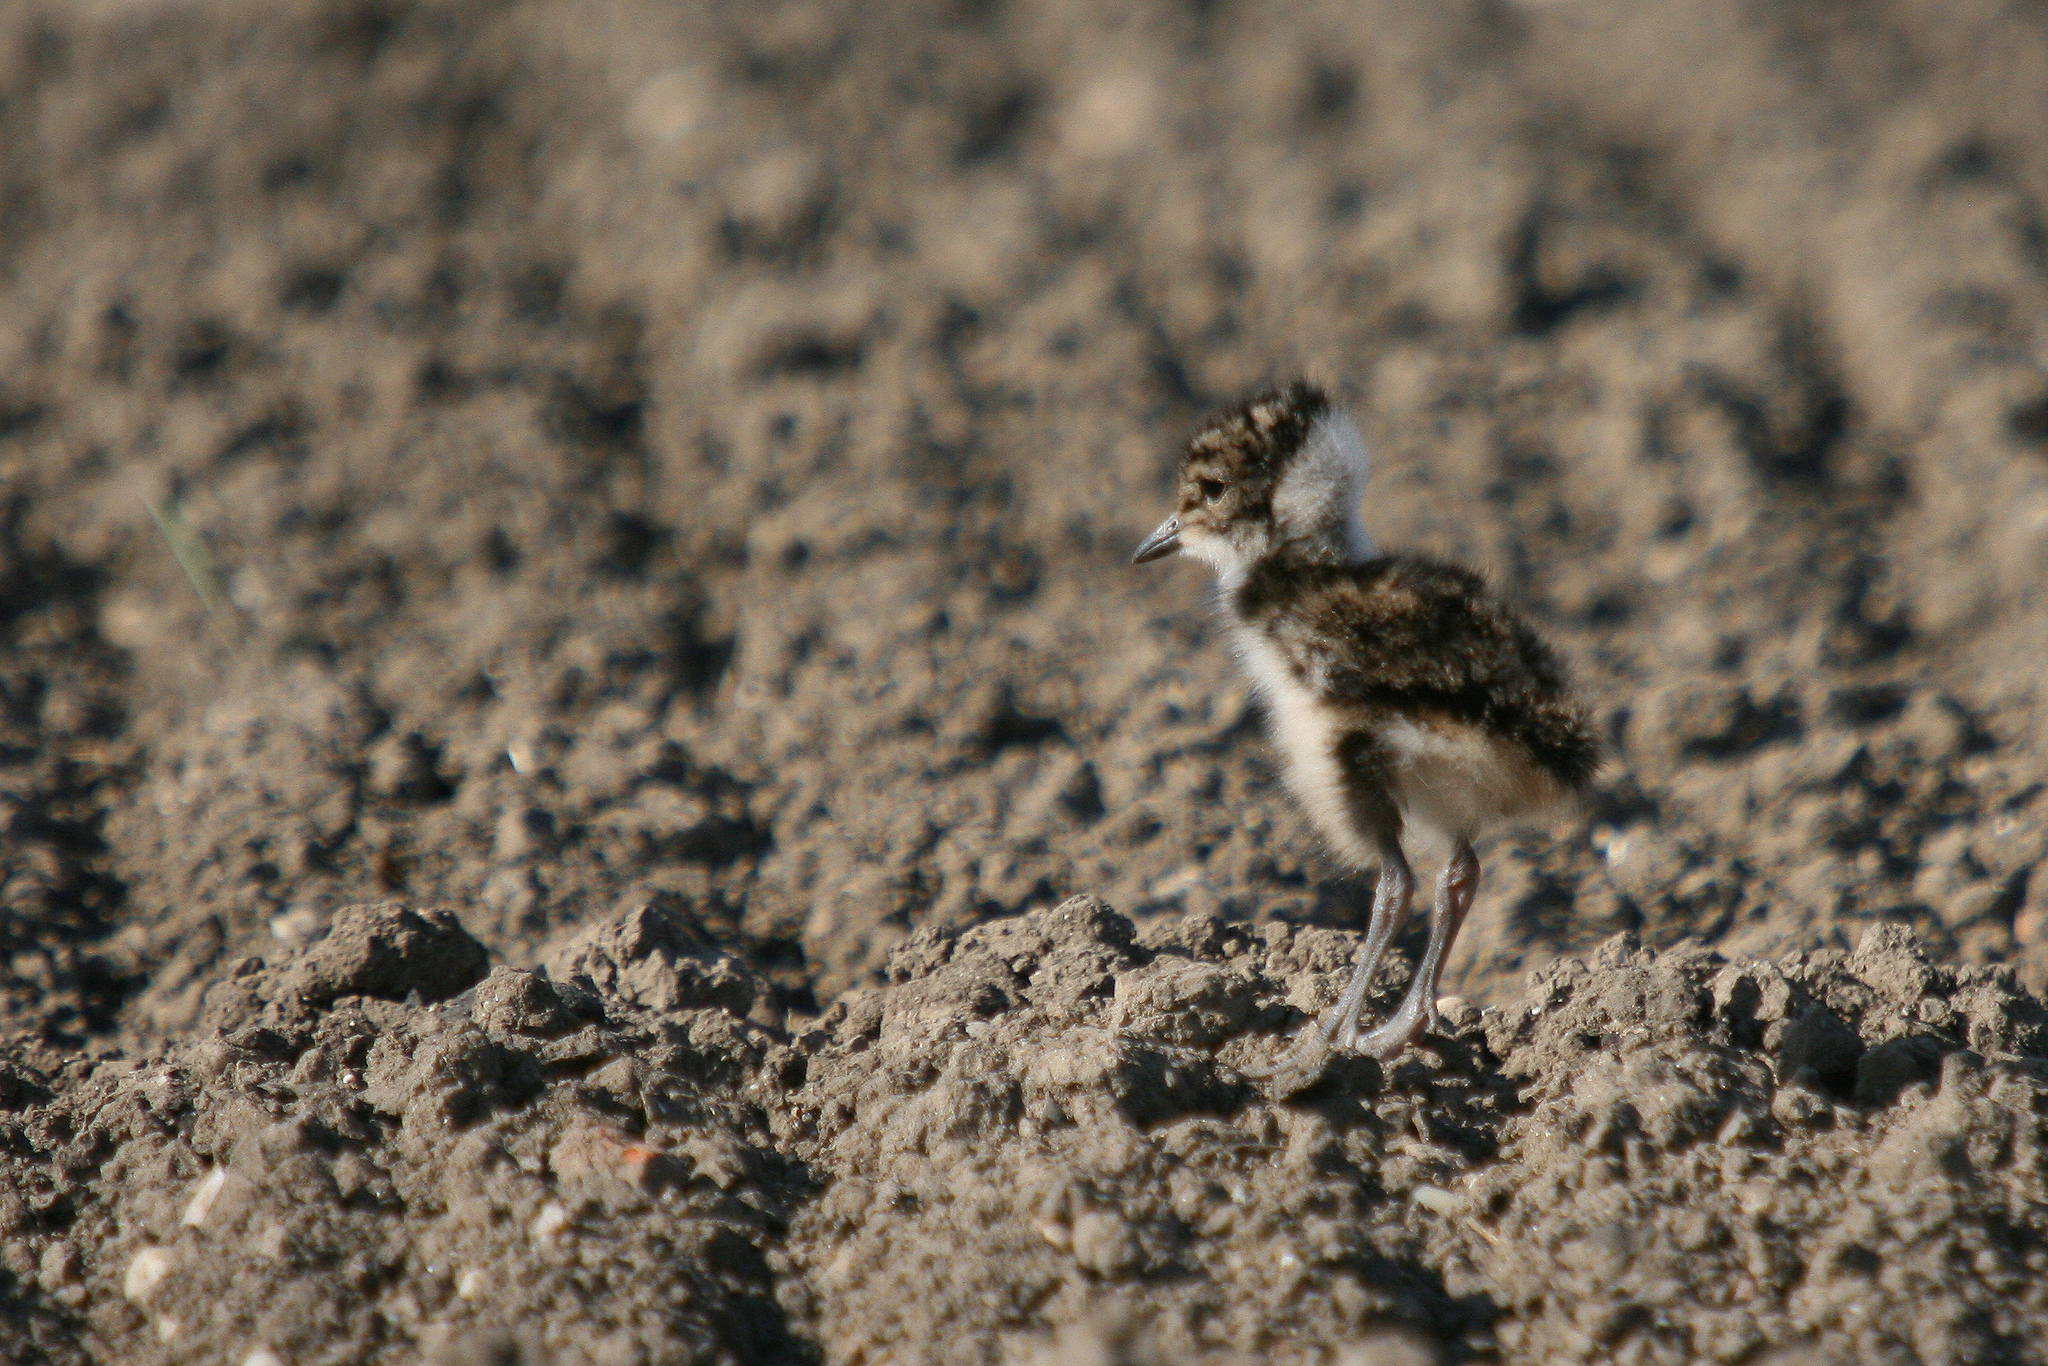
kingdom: Animalia
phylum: Chordata
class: Aves
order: Charadriiformes
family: Charadriidae
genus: Vanellus
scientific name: Vanellus vanellus
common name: Northern lapwing
